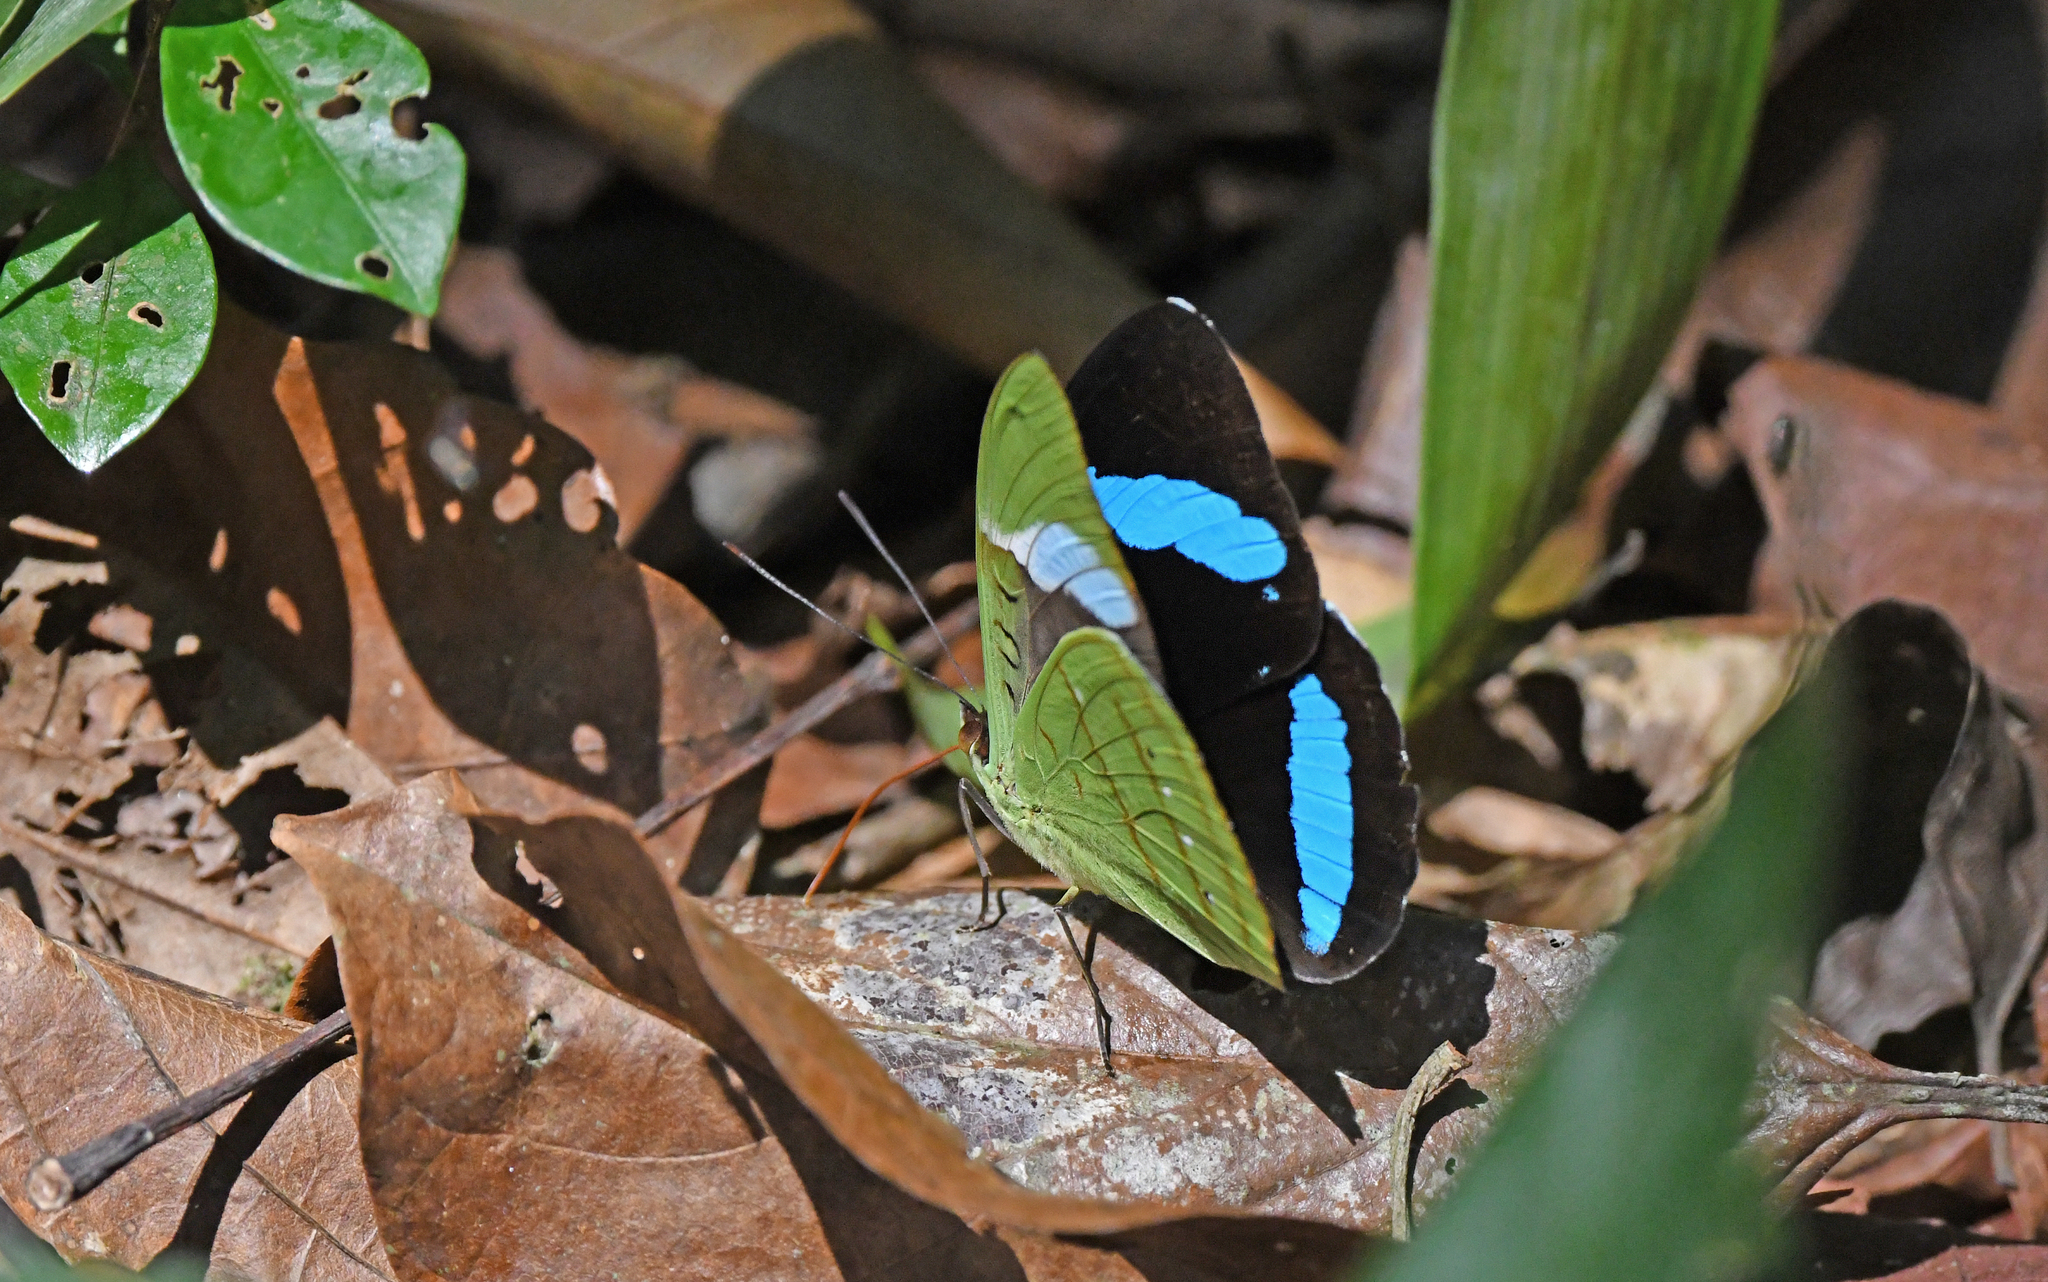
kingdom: Animalia
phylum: Arthropoda
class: Insecta
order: Lepidoptera
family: Nymphalidae
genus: Nessaea
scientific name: Nessaea hewitsonii
